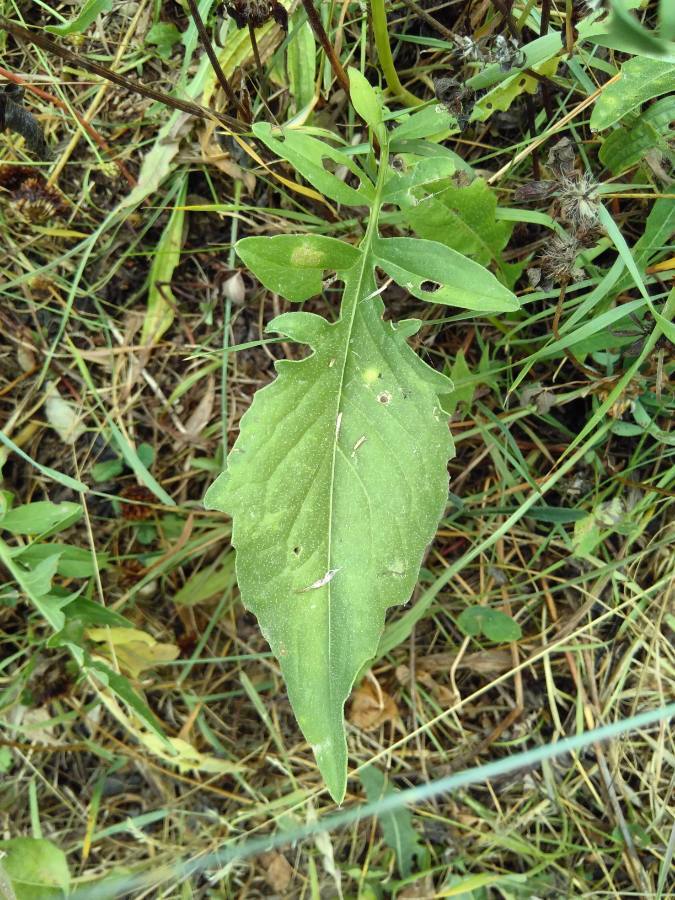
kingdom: Plantae
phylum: Tracheophyta
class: Magnoliopsida
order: Asterales
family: Asteraceae
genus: Centaurea
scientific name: Centaurea scabiosa
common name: Greater knapweed
